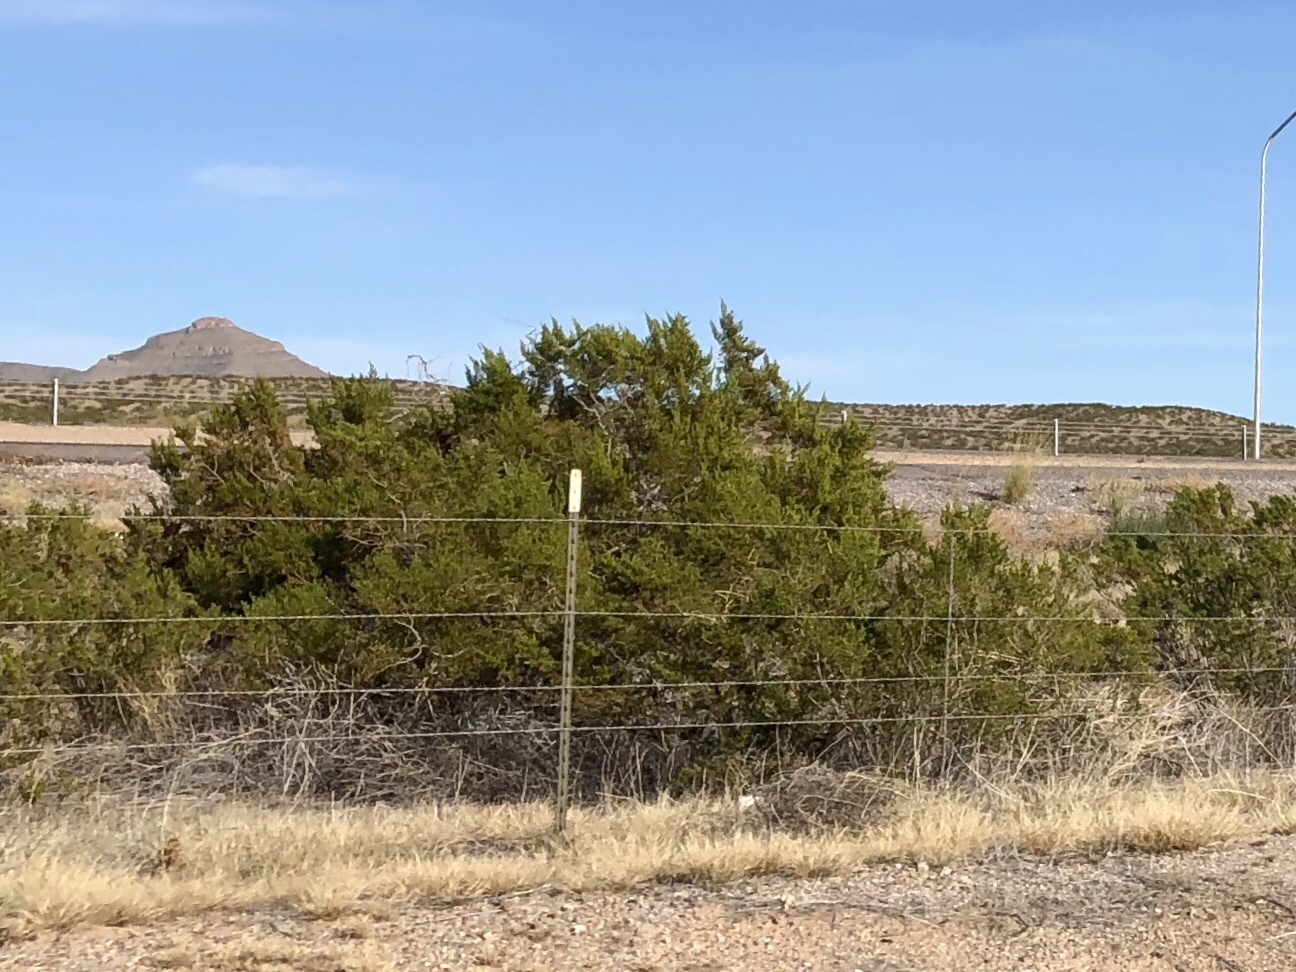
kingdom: Plantae
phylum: Tracheophyta
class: Magnoliopsida
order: Zygophyllales
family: Zygophyllaceae
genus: Larrea
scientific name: Larrea tridentata
